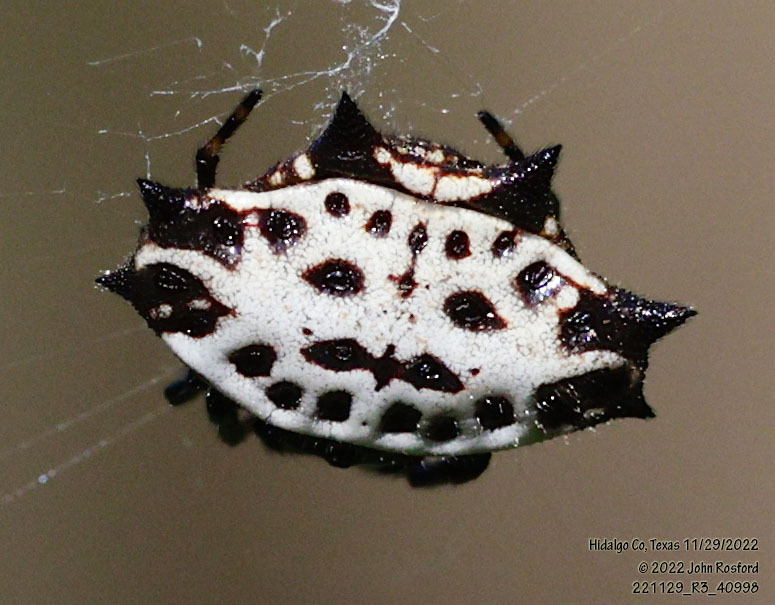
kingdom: Animalia
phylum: Arthropoda
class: Arachnida
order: Araneae
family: Araneidae
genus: Gasteracantha
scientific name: Gasteracantha cancriformis
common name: Orb weavers
